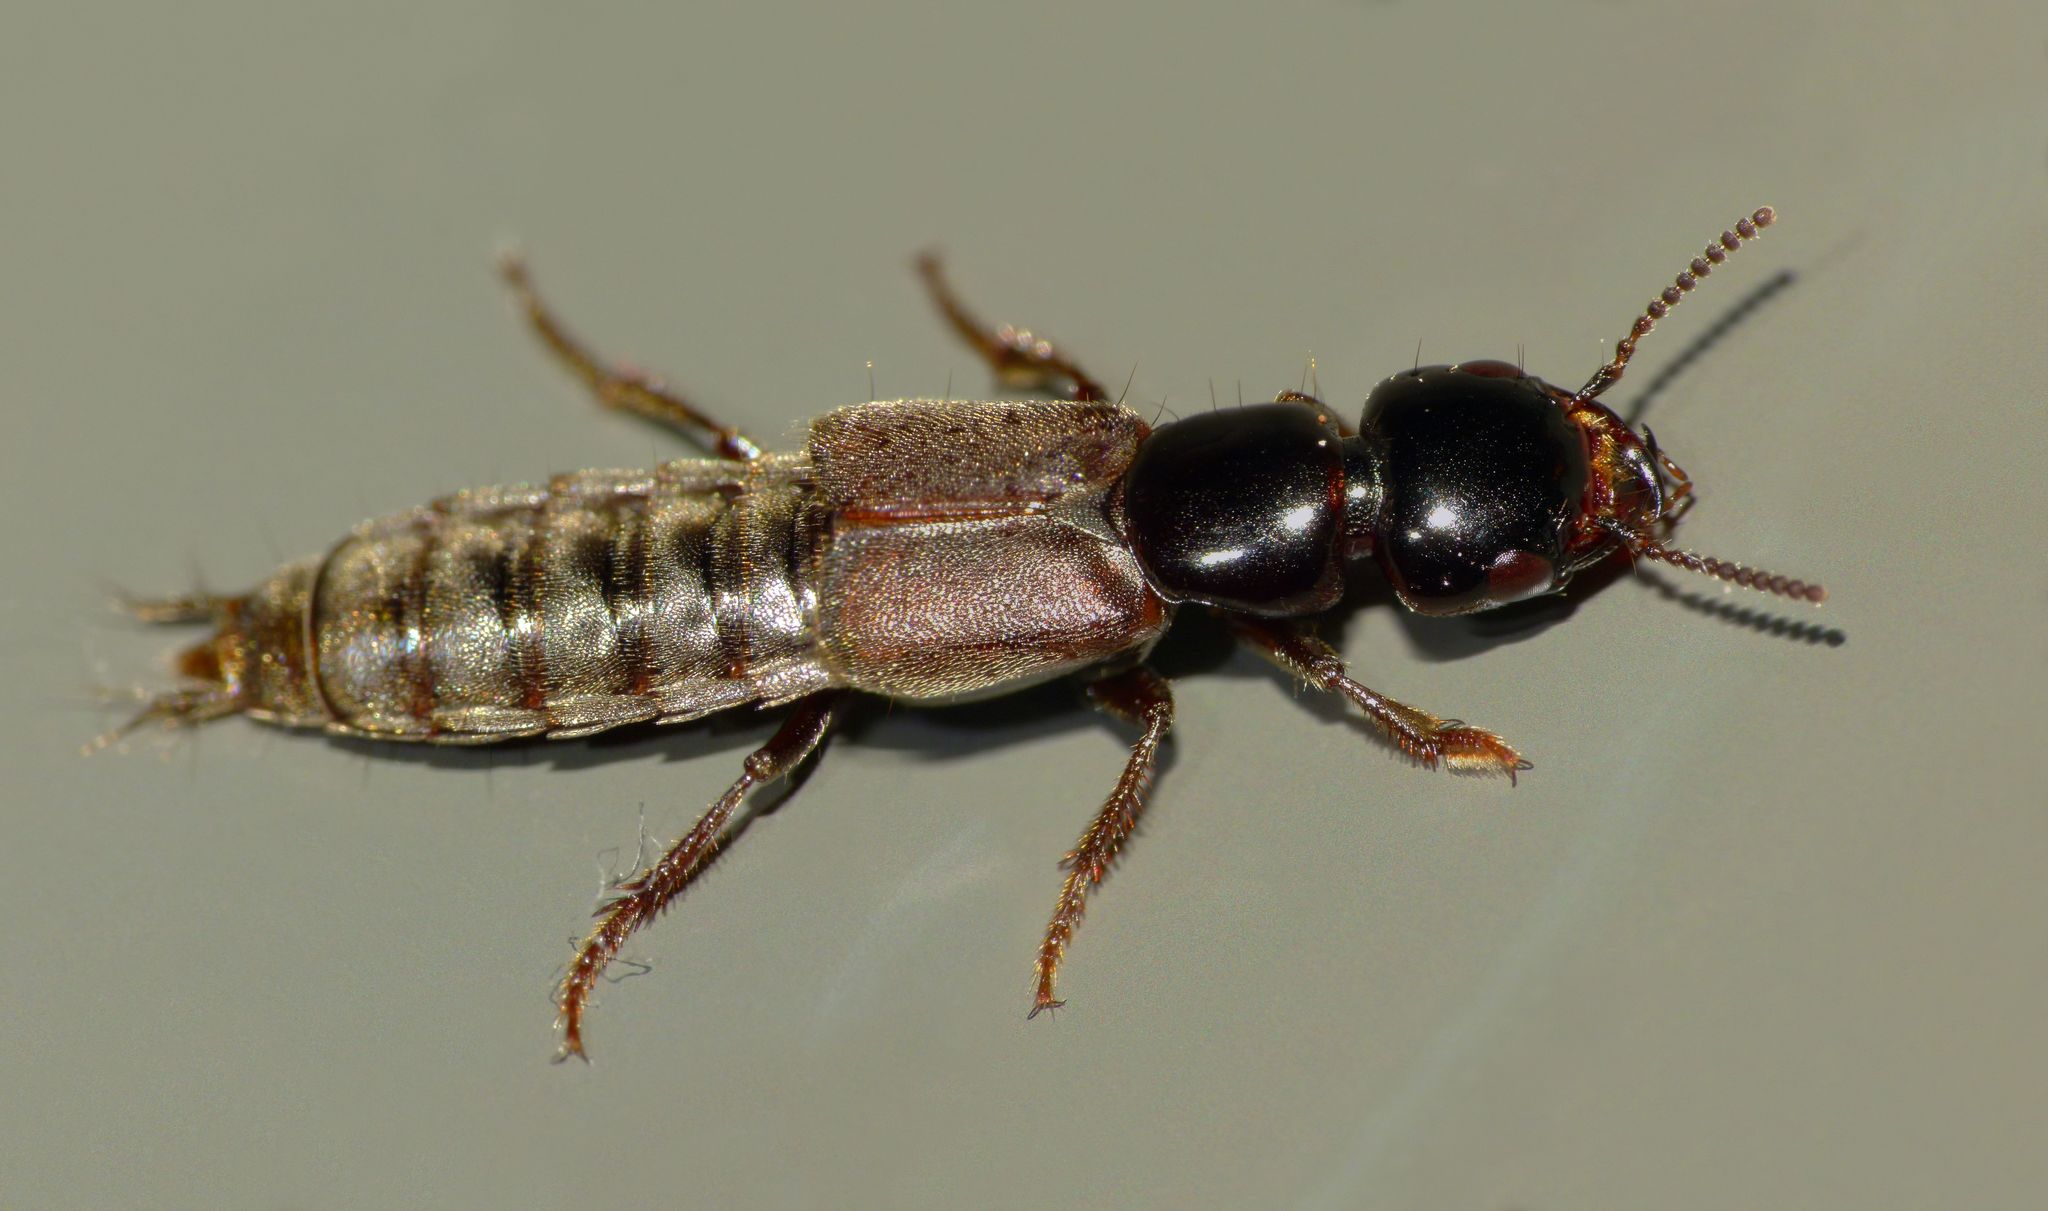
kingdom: Animalia
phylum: Arthropoda
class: Insecta
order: Coleoptera
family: Staphylinidae
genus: Cafius
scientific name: Cafius litoreus
